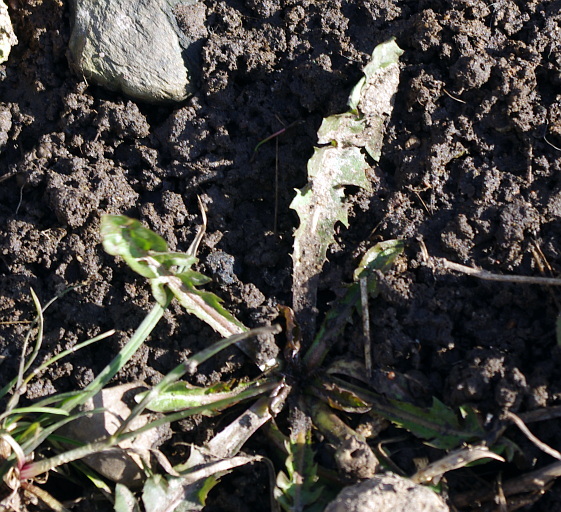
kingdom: Plantae
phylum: Tracheophyta
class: Magnoliopsida
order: Asterales
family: Asteraceae
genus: Taraxacum
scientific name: Taraxacum officinale
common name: Common dandelion
